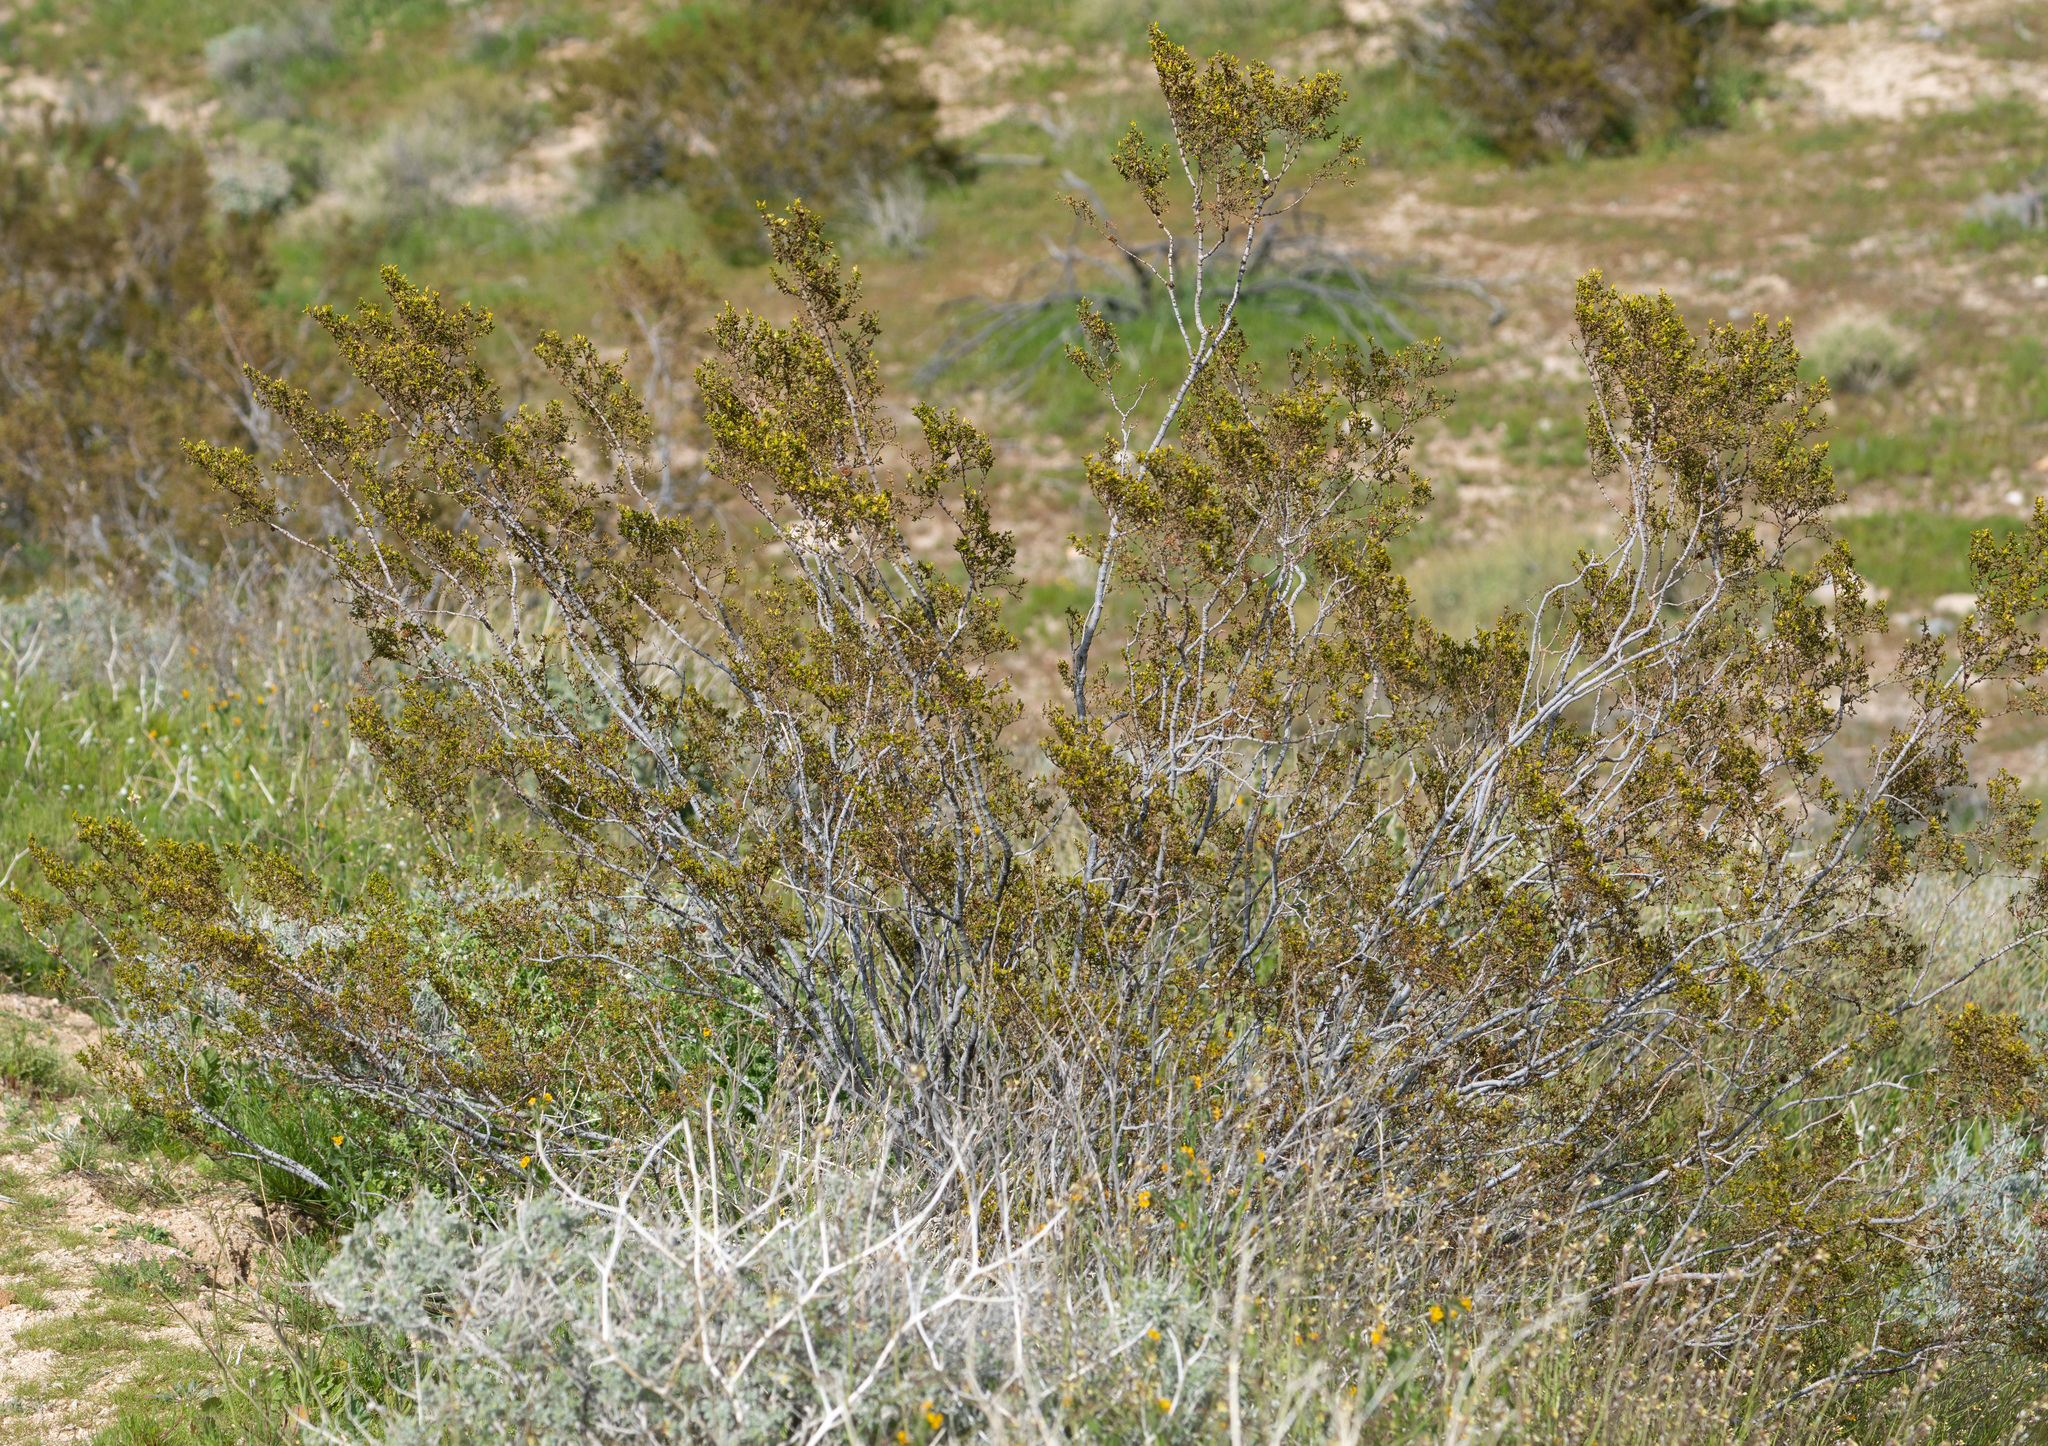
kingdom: Plantae
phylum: Tracheophyta
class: Magnoliopsida
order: Zygophyllales
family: Zygophyllaceae
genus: Larrea
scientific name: Larrea tridentata
